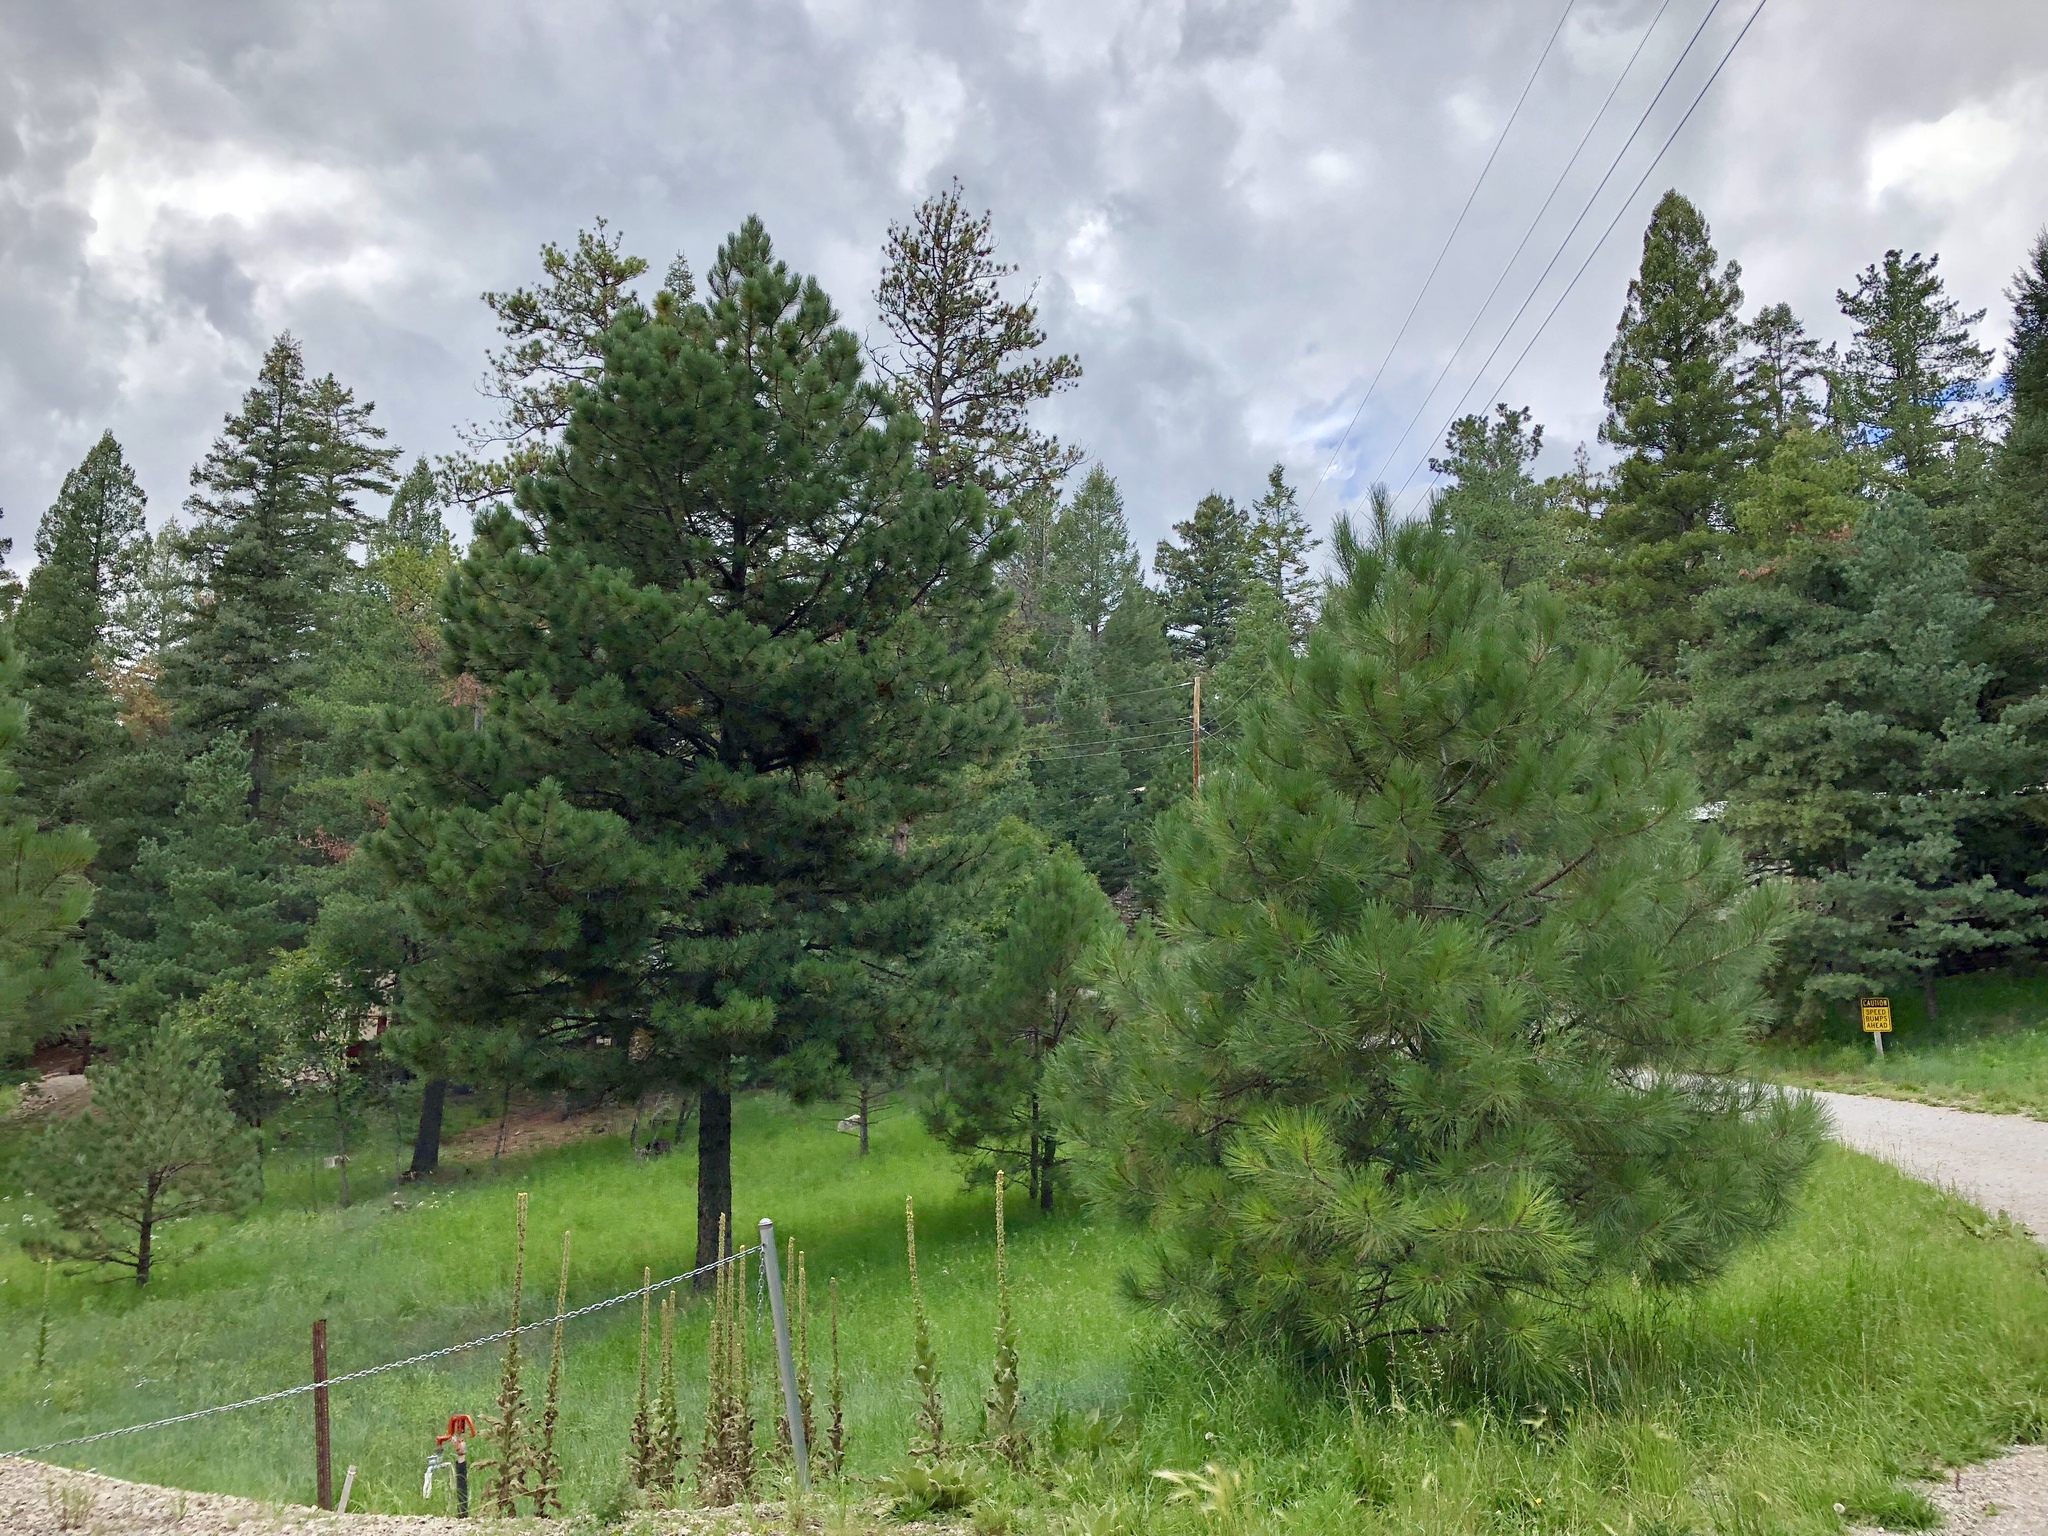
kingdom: Plantae
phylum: Tracheophyta
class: Pinopsida
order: Pinales
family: Pinaceae
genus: Pinus
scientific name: Pinus ponderosa
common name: Western yellow-pine
